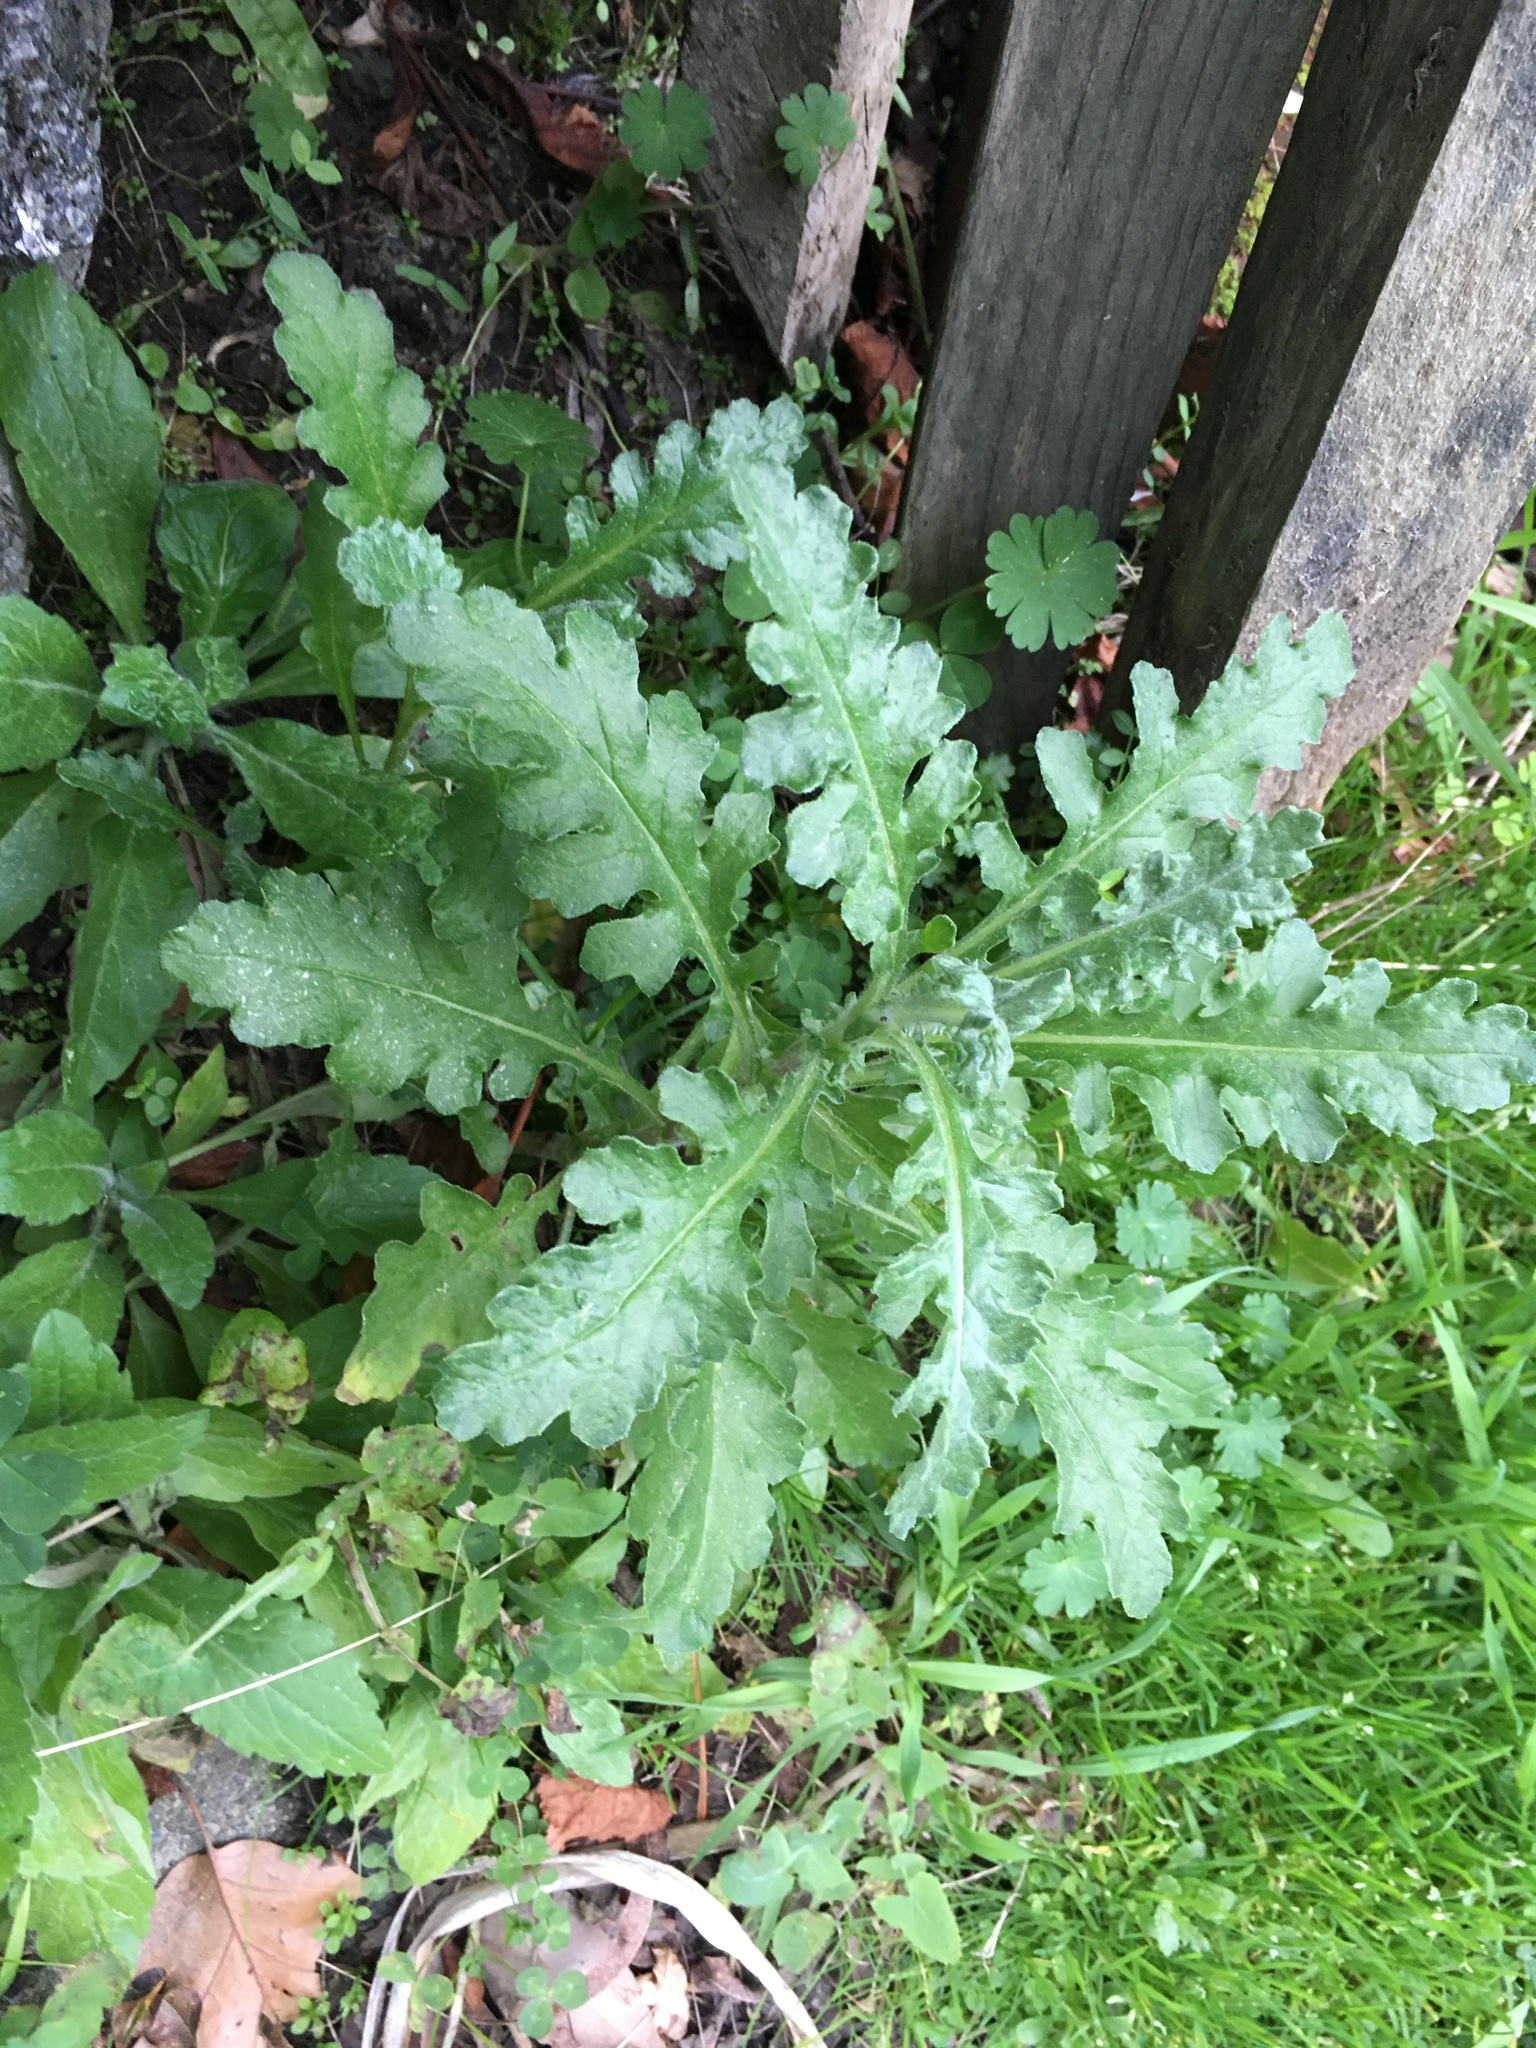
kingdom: Plantae
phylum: Tracheophyta
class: Magnoliopsida
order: Asterales
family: Asteraceae
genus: Senecio
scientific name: Senecio glomeratus
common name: Cutleaf burnweed
